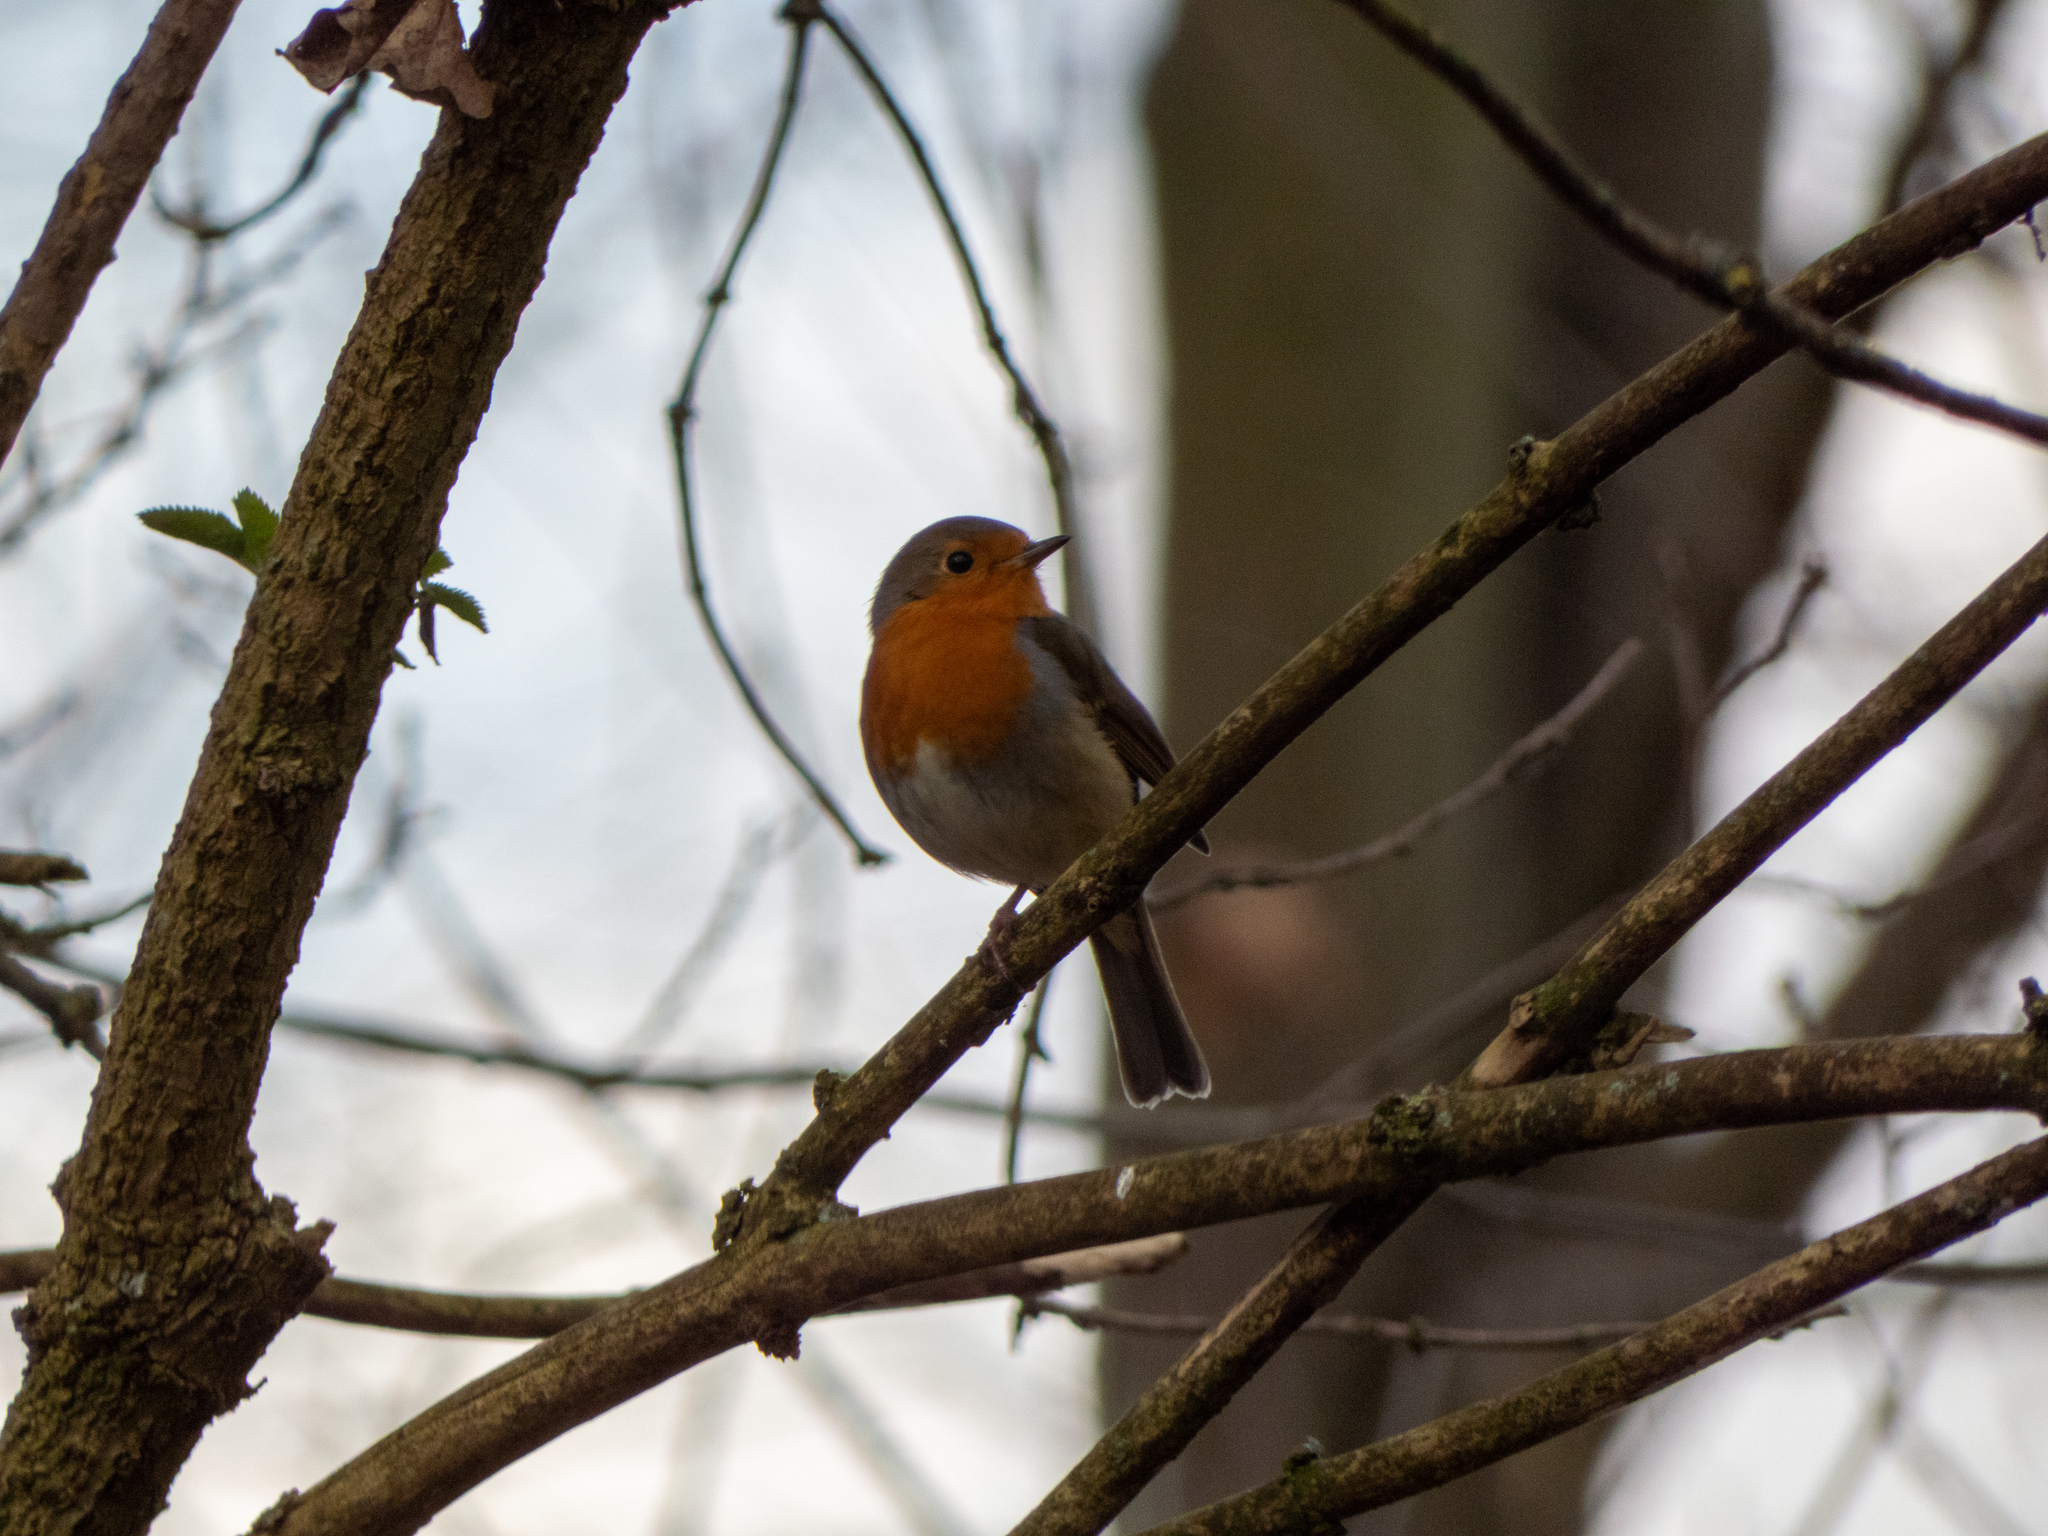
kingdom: Animalia
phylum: Chordata
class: Aves
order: Passeriformes
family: Muscicapidae
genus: Erithacus
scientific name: Erithacus rubecula
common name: European robin
